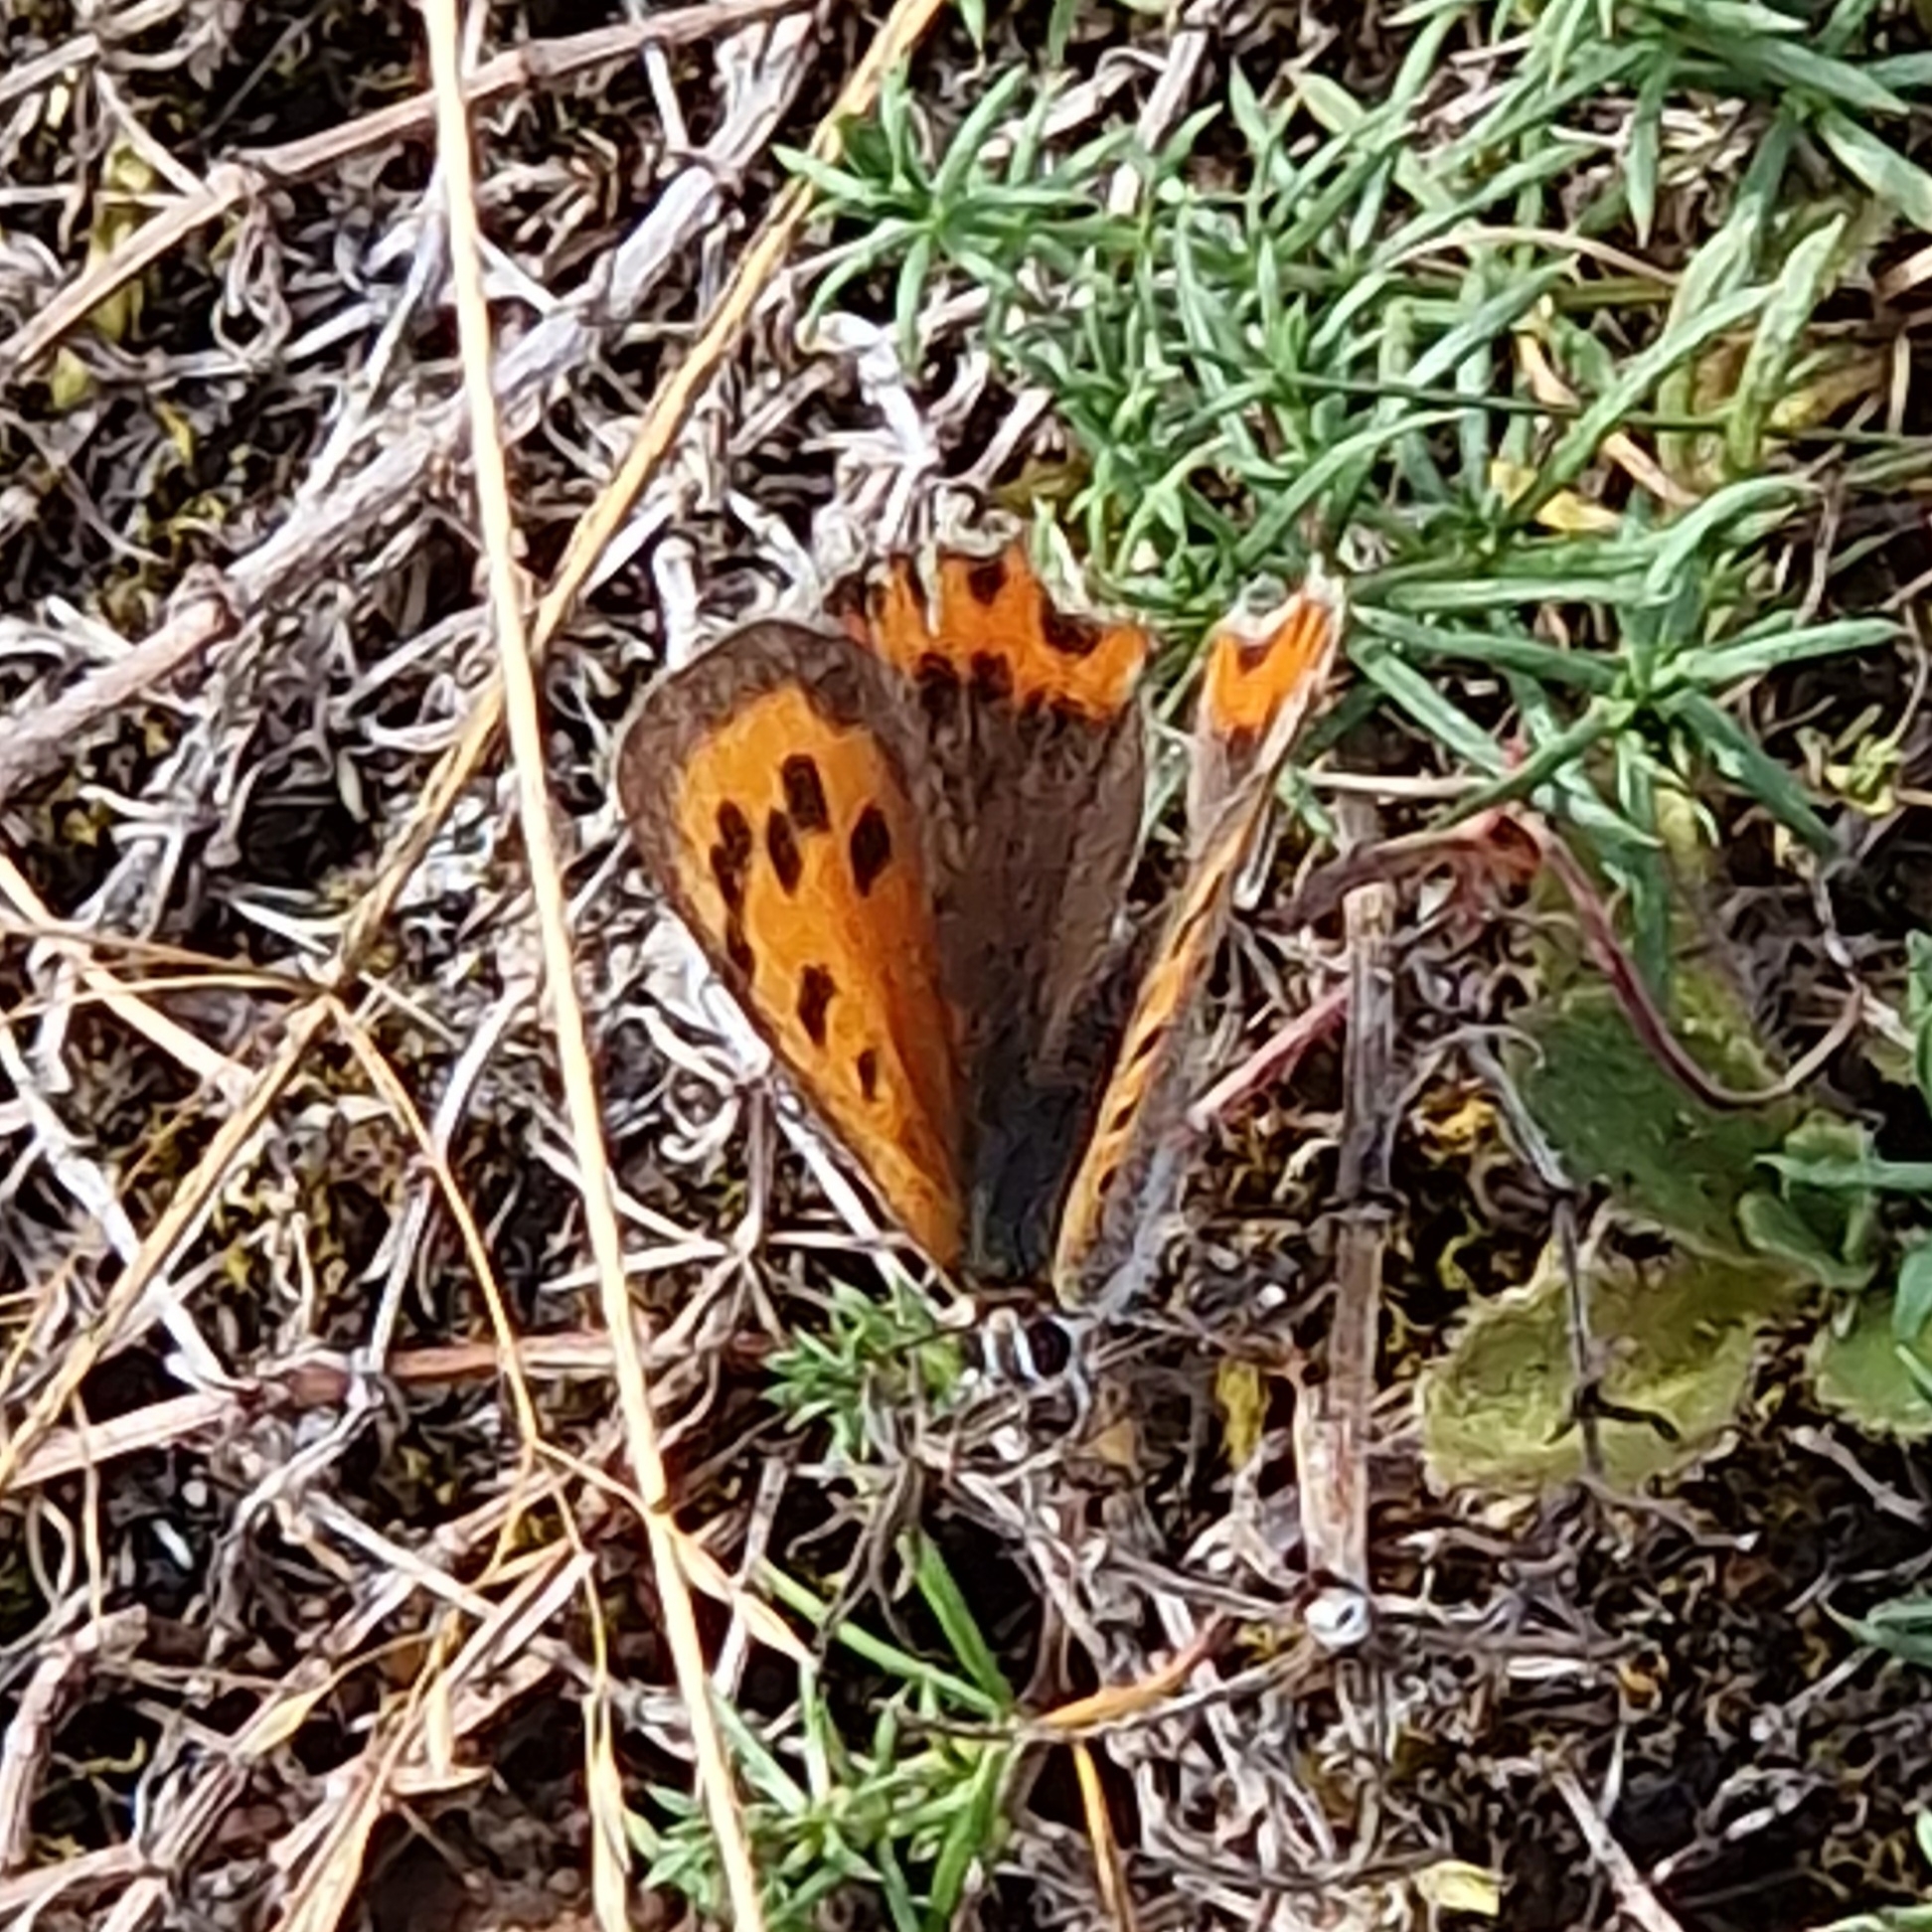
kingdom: Animalia
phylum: Arthropoda
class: Insecta
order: Lepidoptera
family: Lycaenidae
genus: Lycaena
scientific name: Lycaena phlaeas
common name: Small copper
